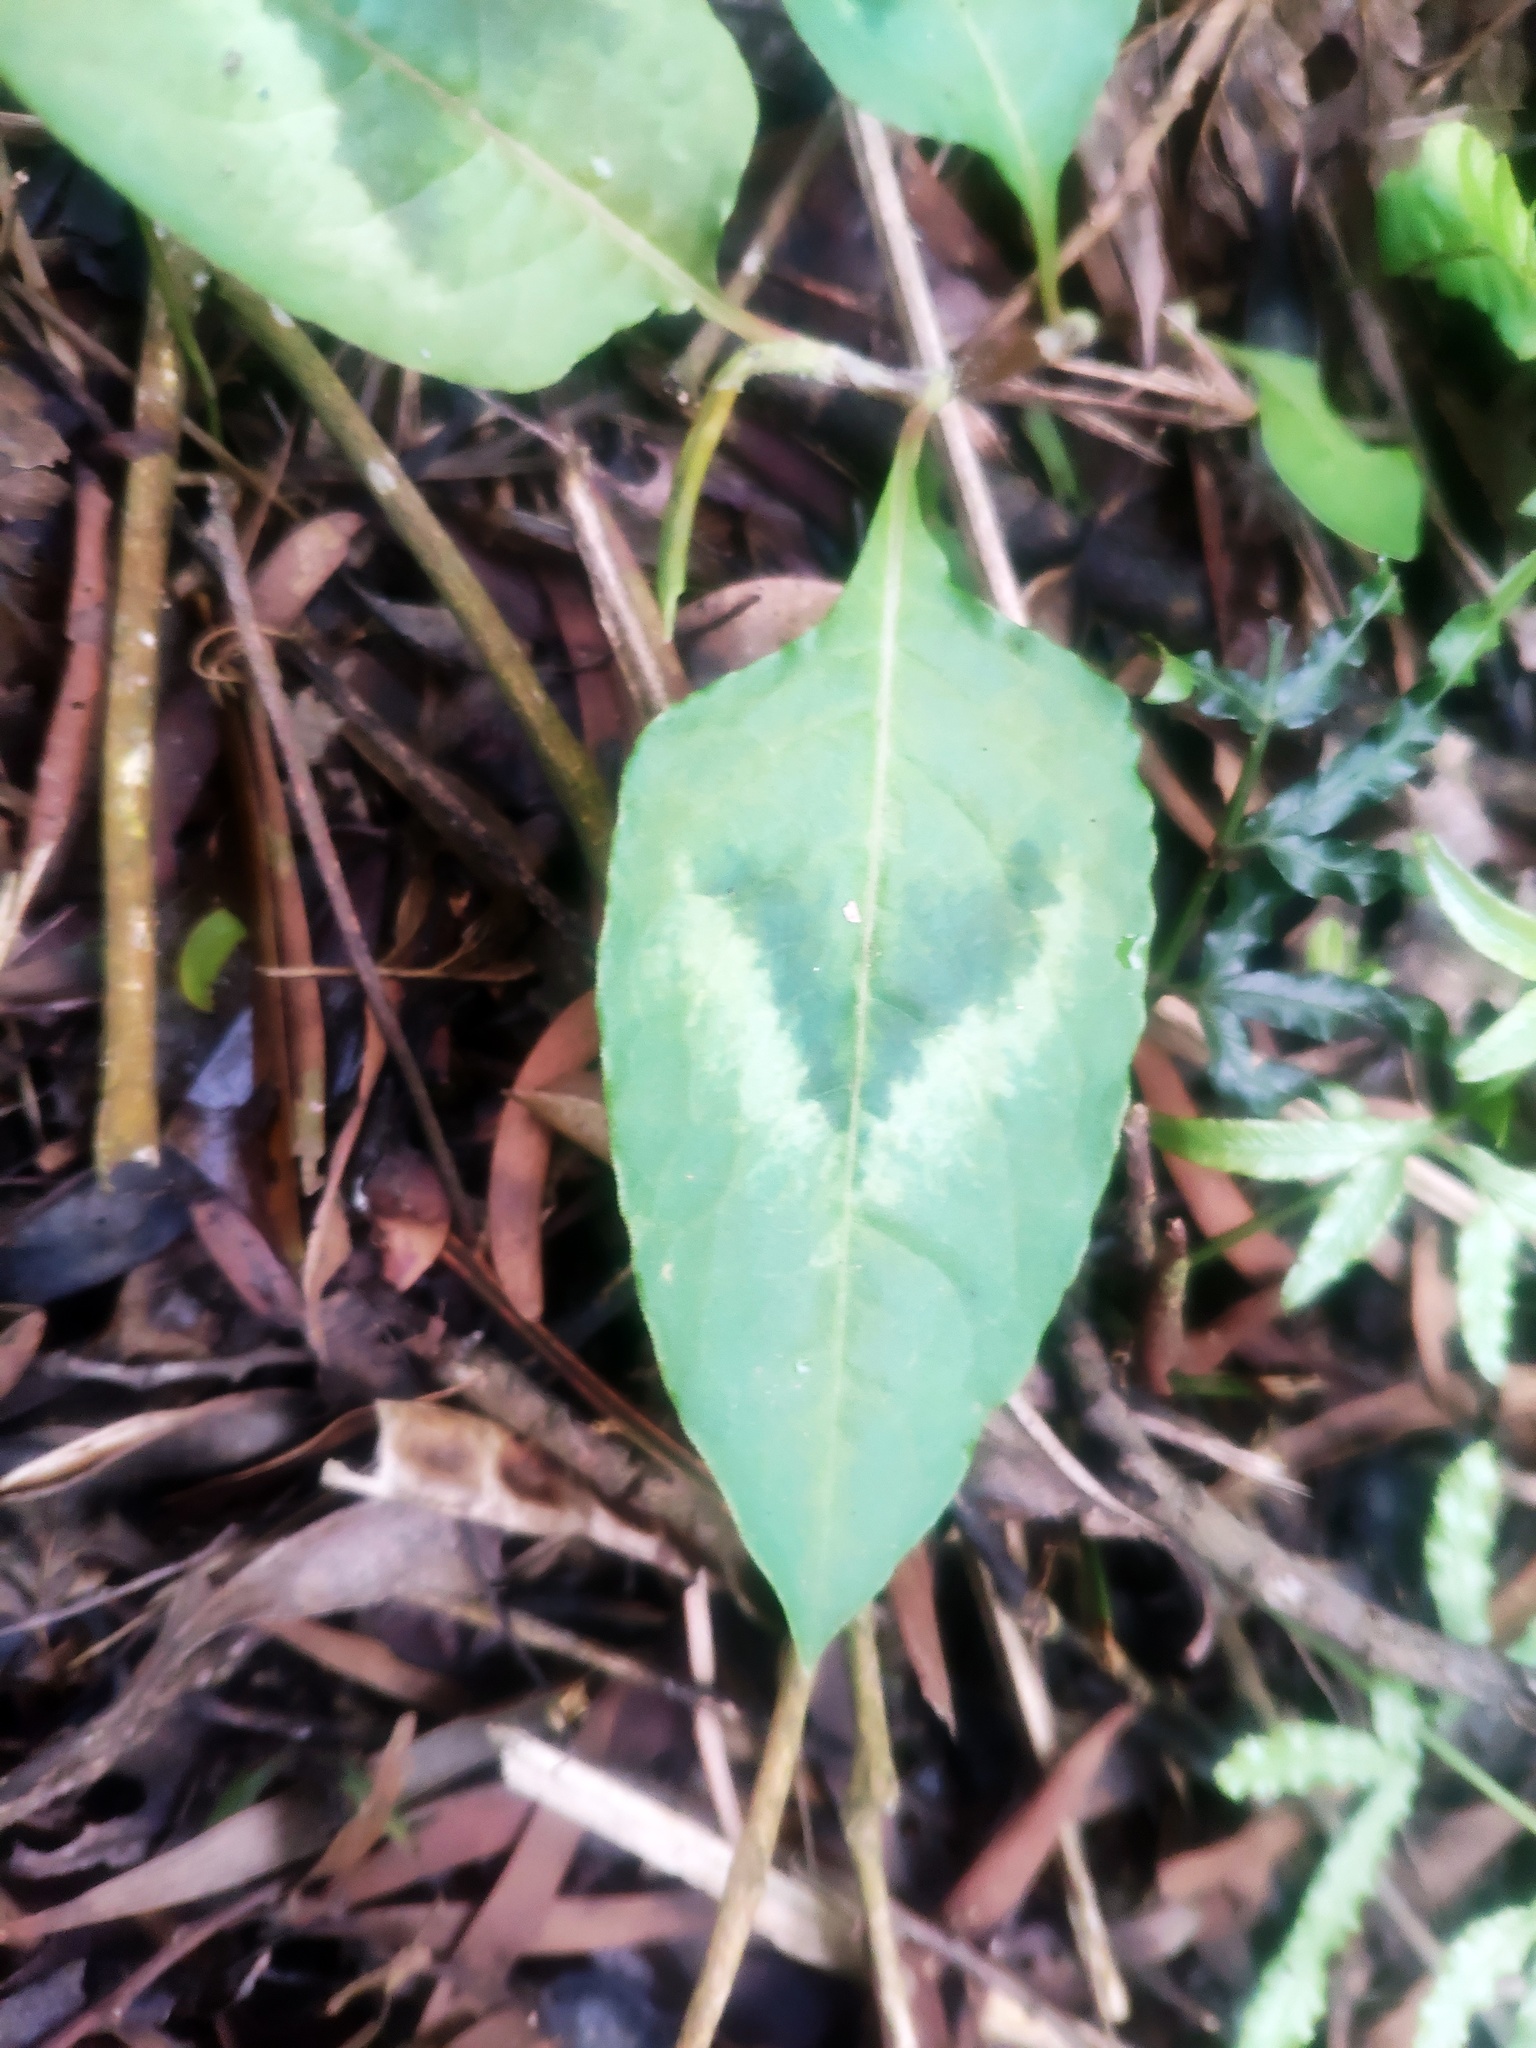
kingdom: Plantae
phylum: Tracheophyta
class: Magnoliopsida
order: Caryophyllales
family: Polygonaceae
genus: Persicaria
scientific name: Persicaria chinensis
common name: Chinese knotweed
